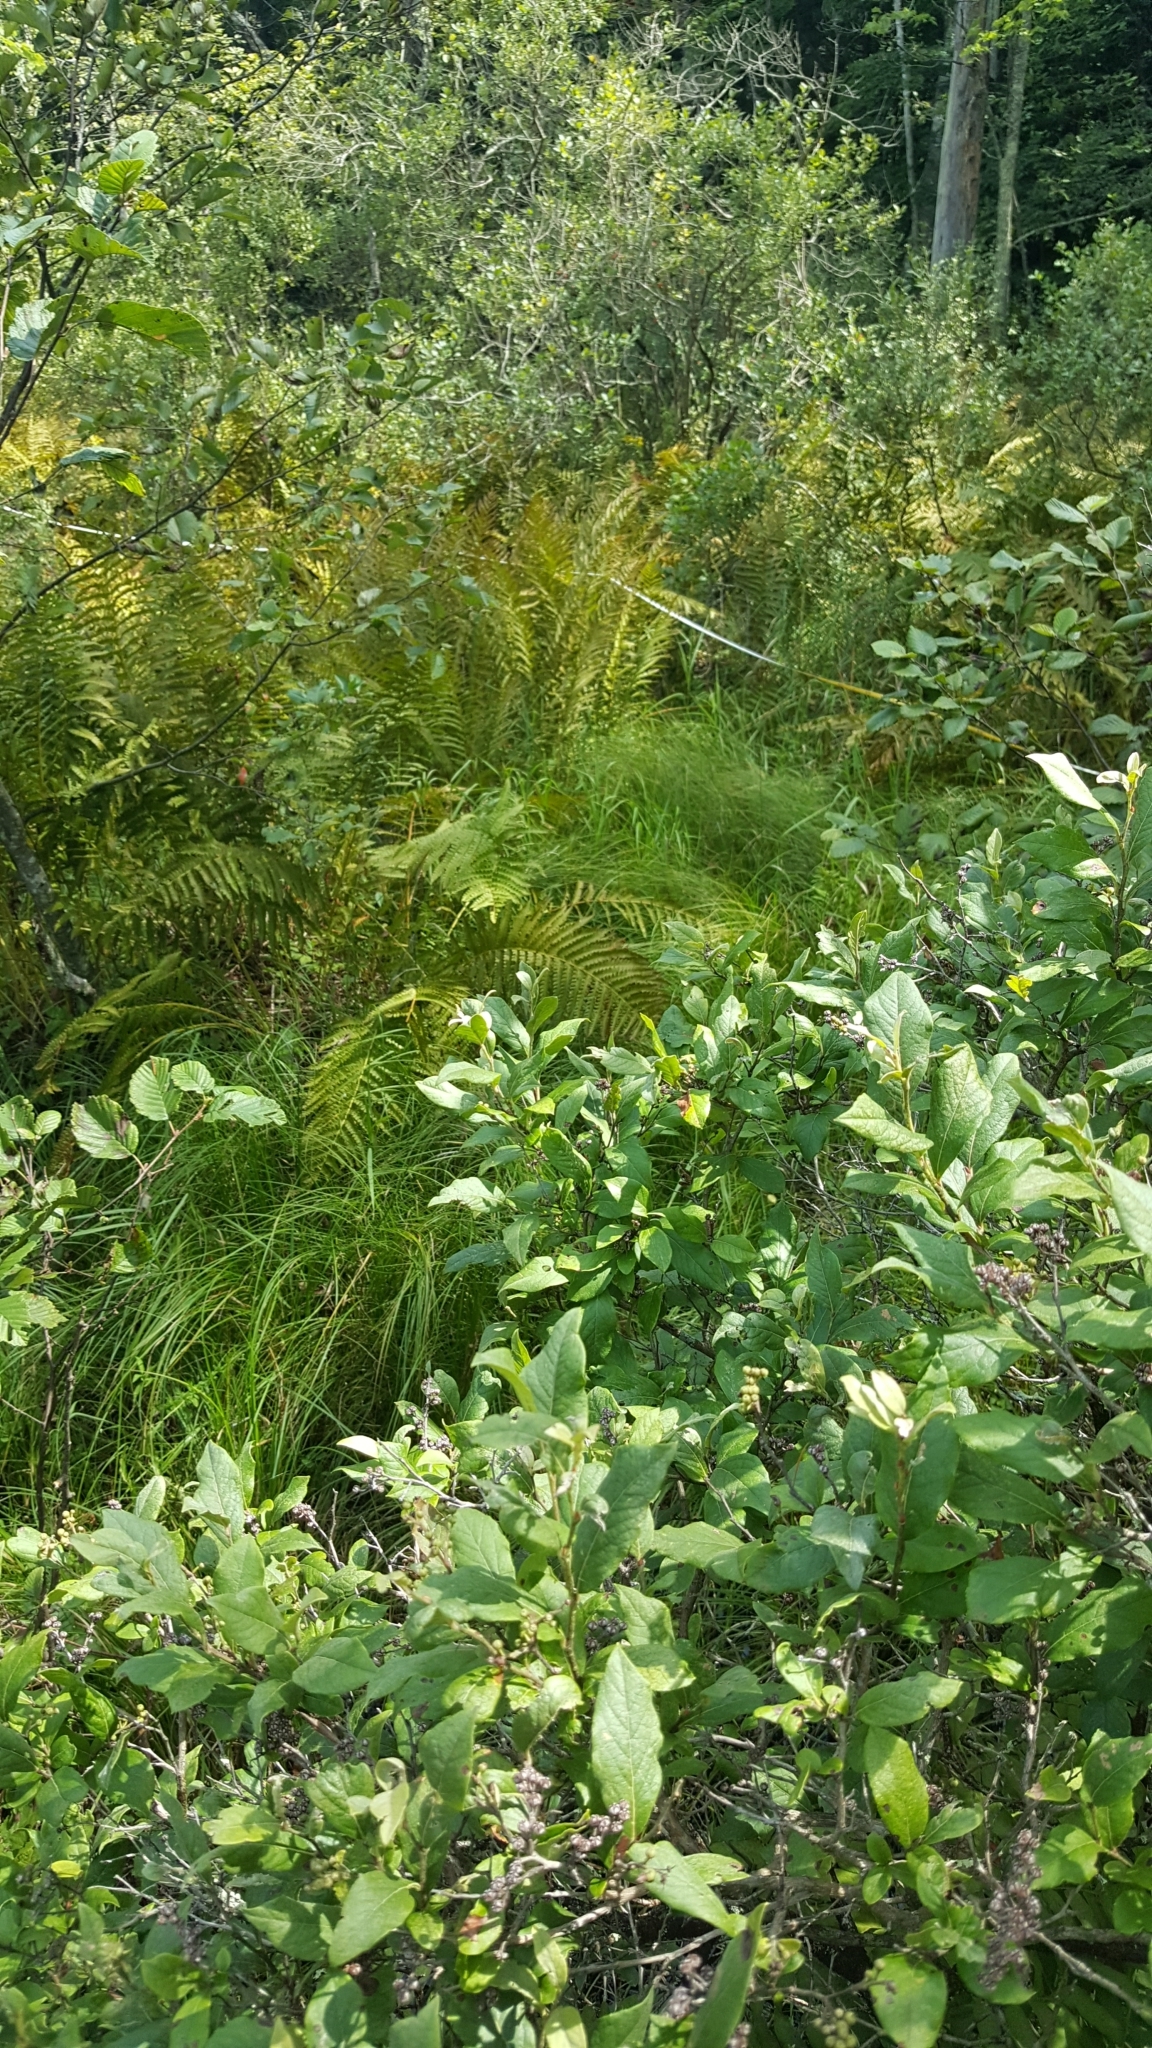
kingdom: Plantae
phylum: Tracheophyta
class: Magnoliopsida
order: Ericales
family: Ericaceae
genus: Lyonia
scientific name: Lyonia ligustrina
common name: Maleberry
